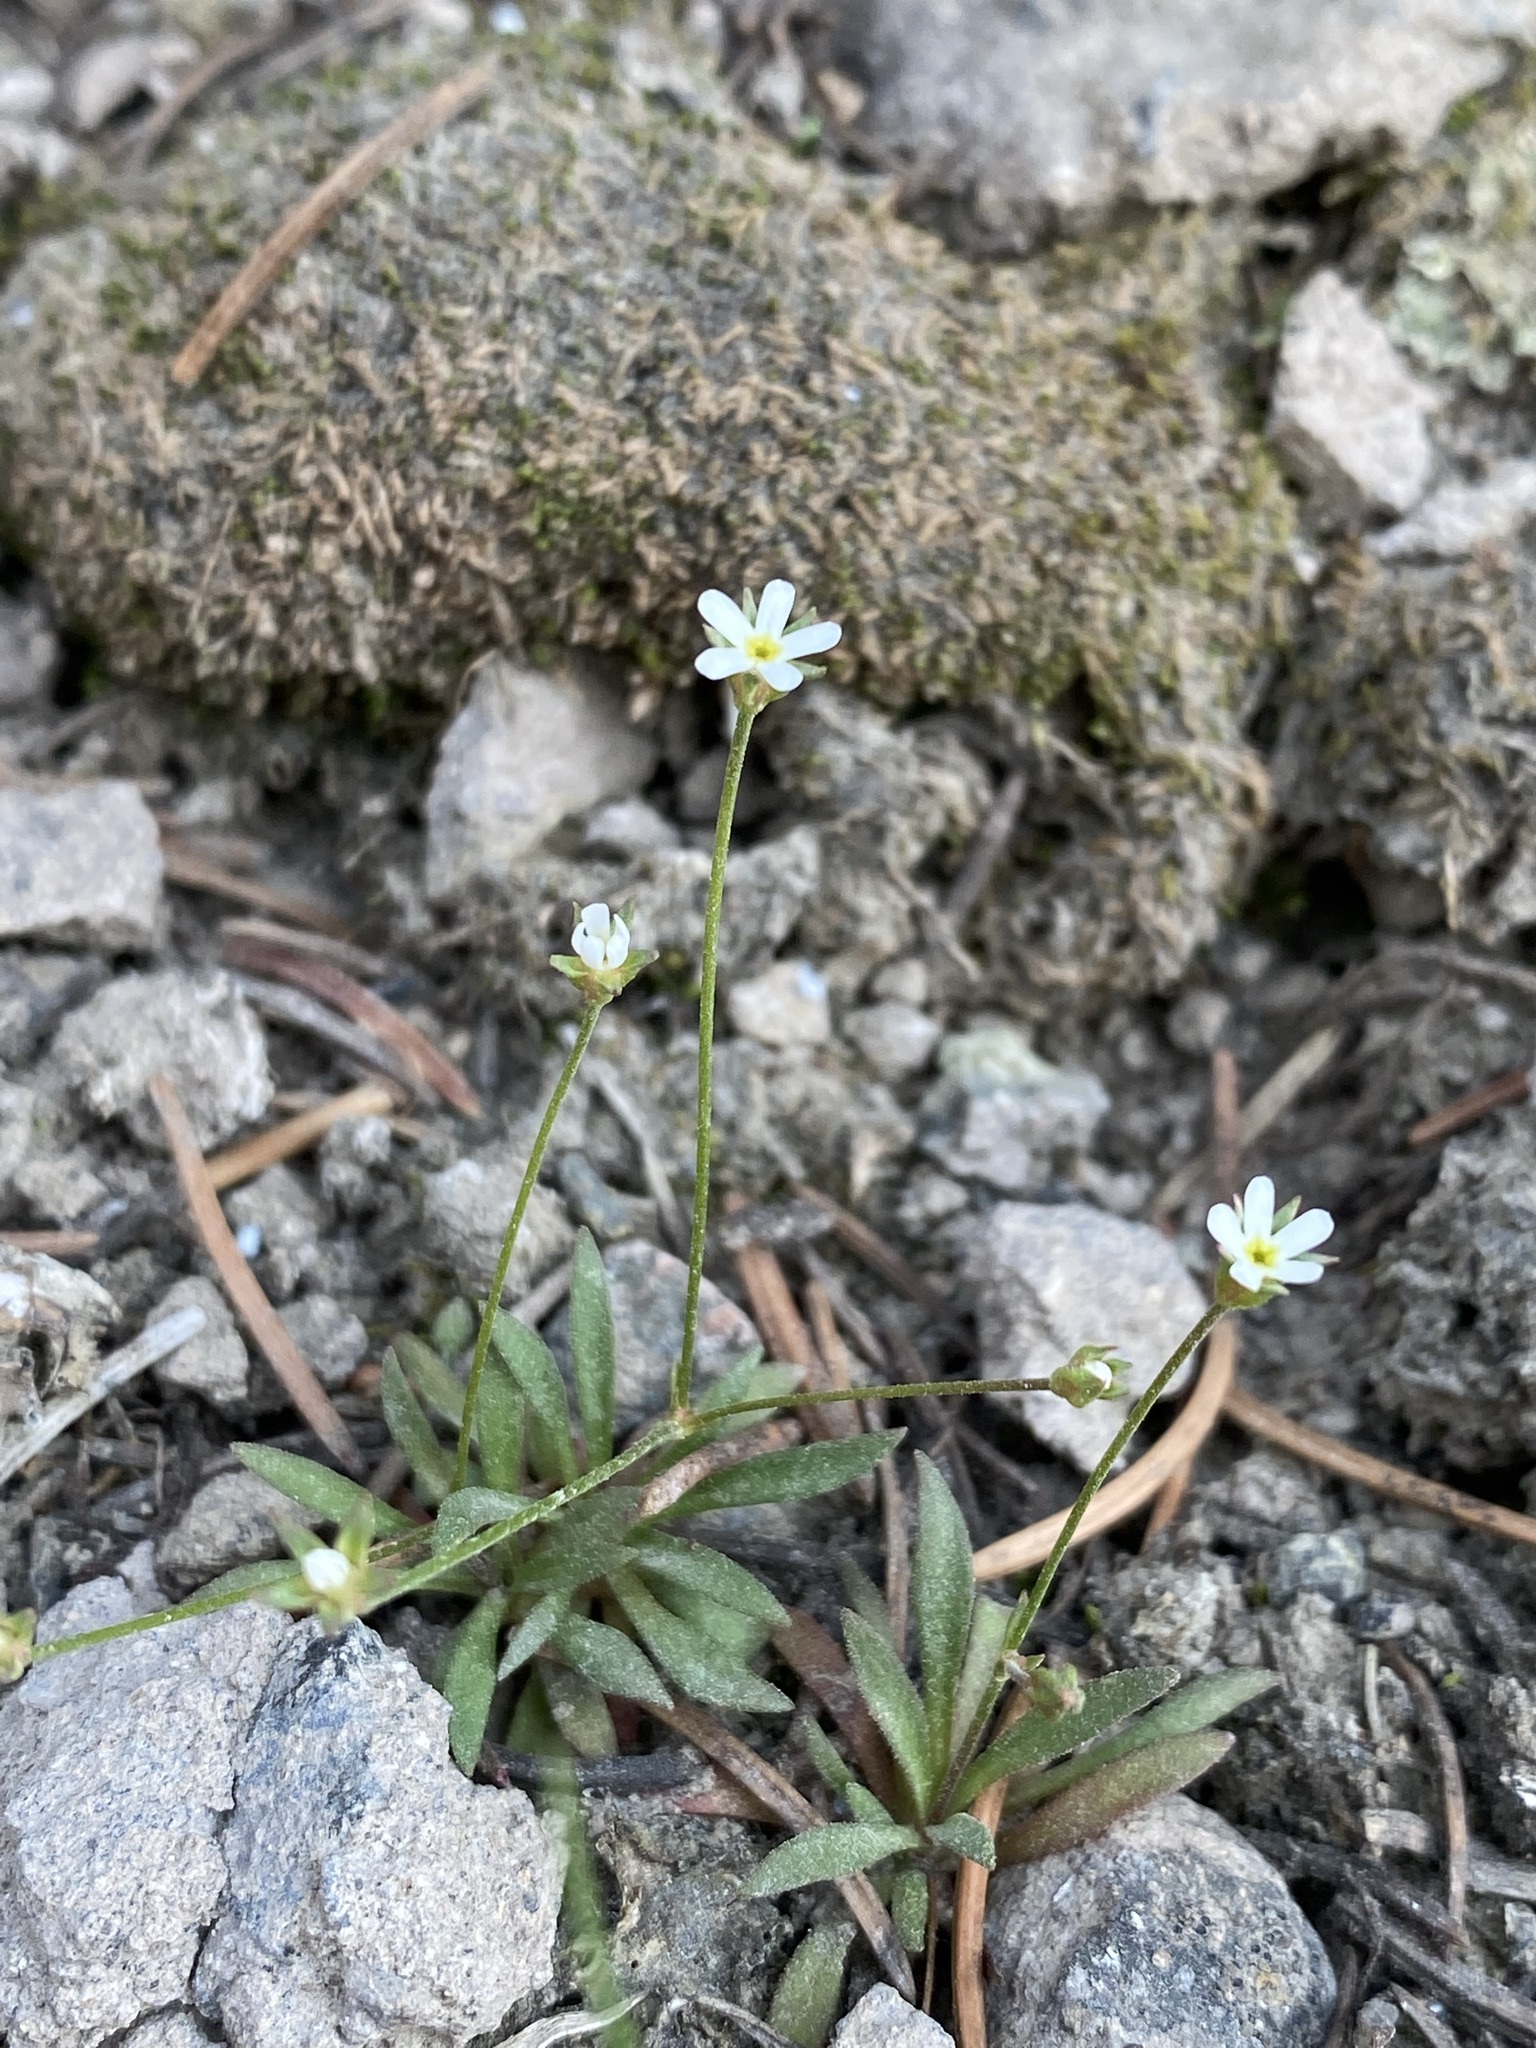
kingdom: Plantae
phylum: Tracheophyta
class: Magnoliopsida
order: Ericales
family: Primulaceae
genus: Androsace
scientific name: Androsace septentrionalis
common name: Hairy northern fairy-candelabra
